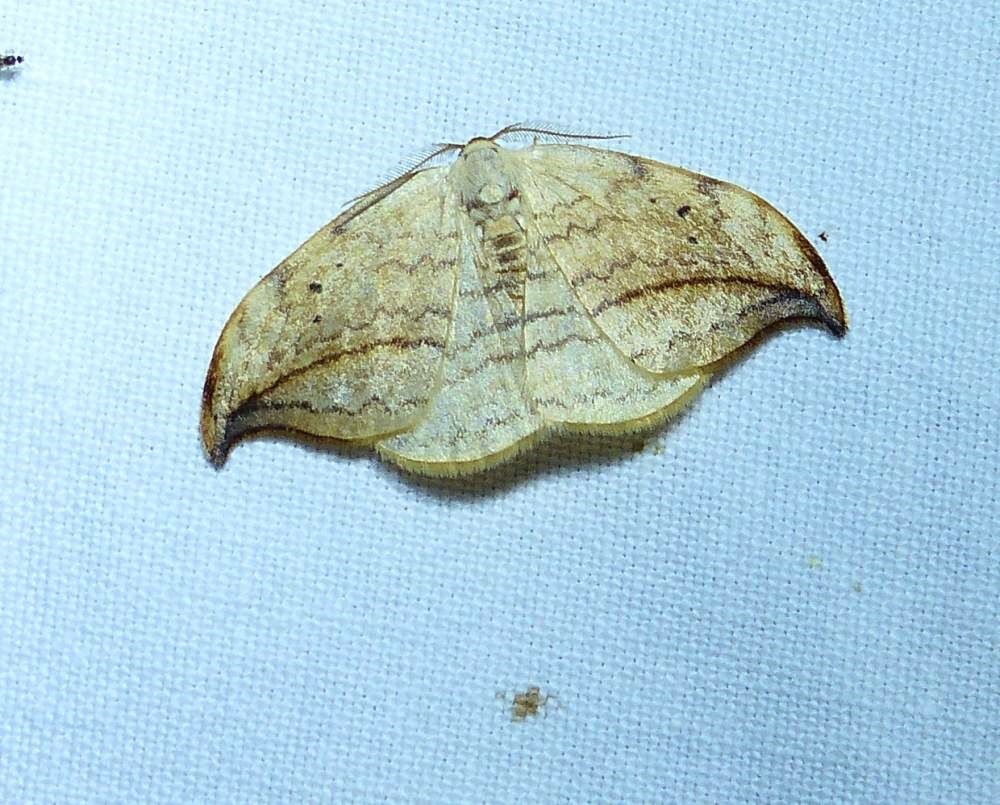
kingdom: Animalia
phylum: Arthropoda
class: Insecta
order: Lepidoptera
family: Drepanidae
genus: Drepana
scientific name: Drepana arcuata
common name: Arched hooktip moth
